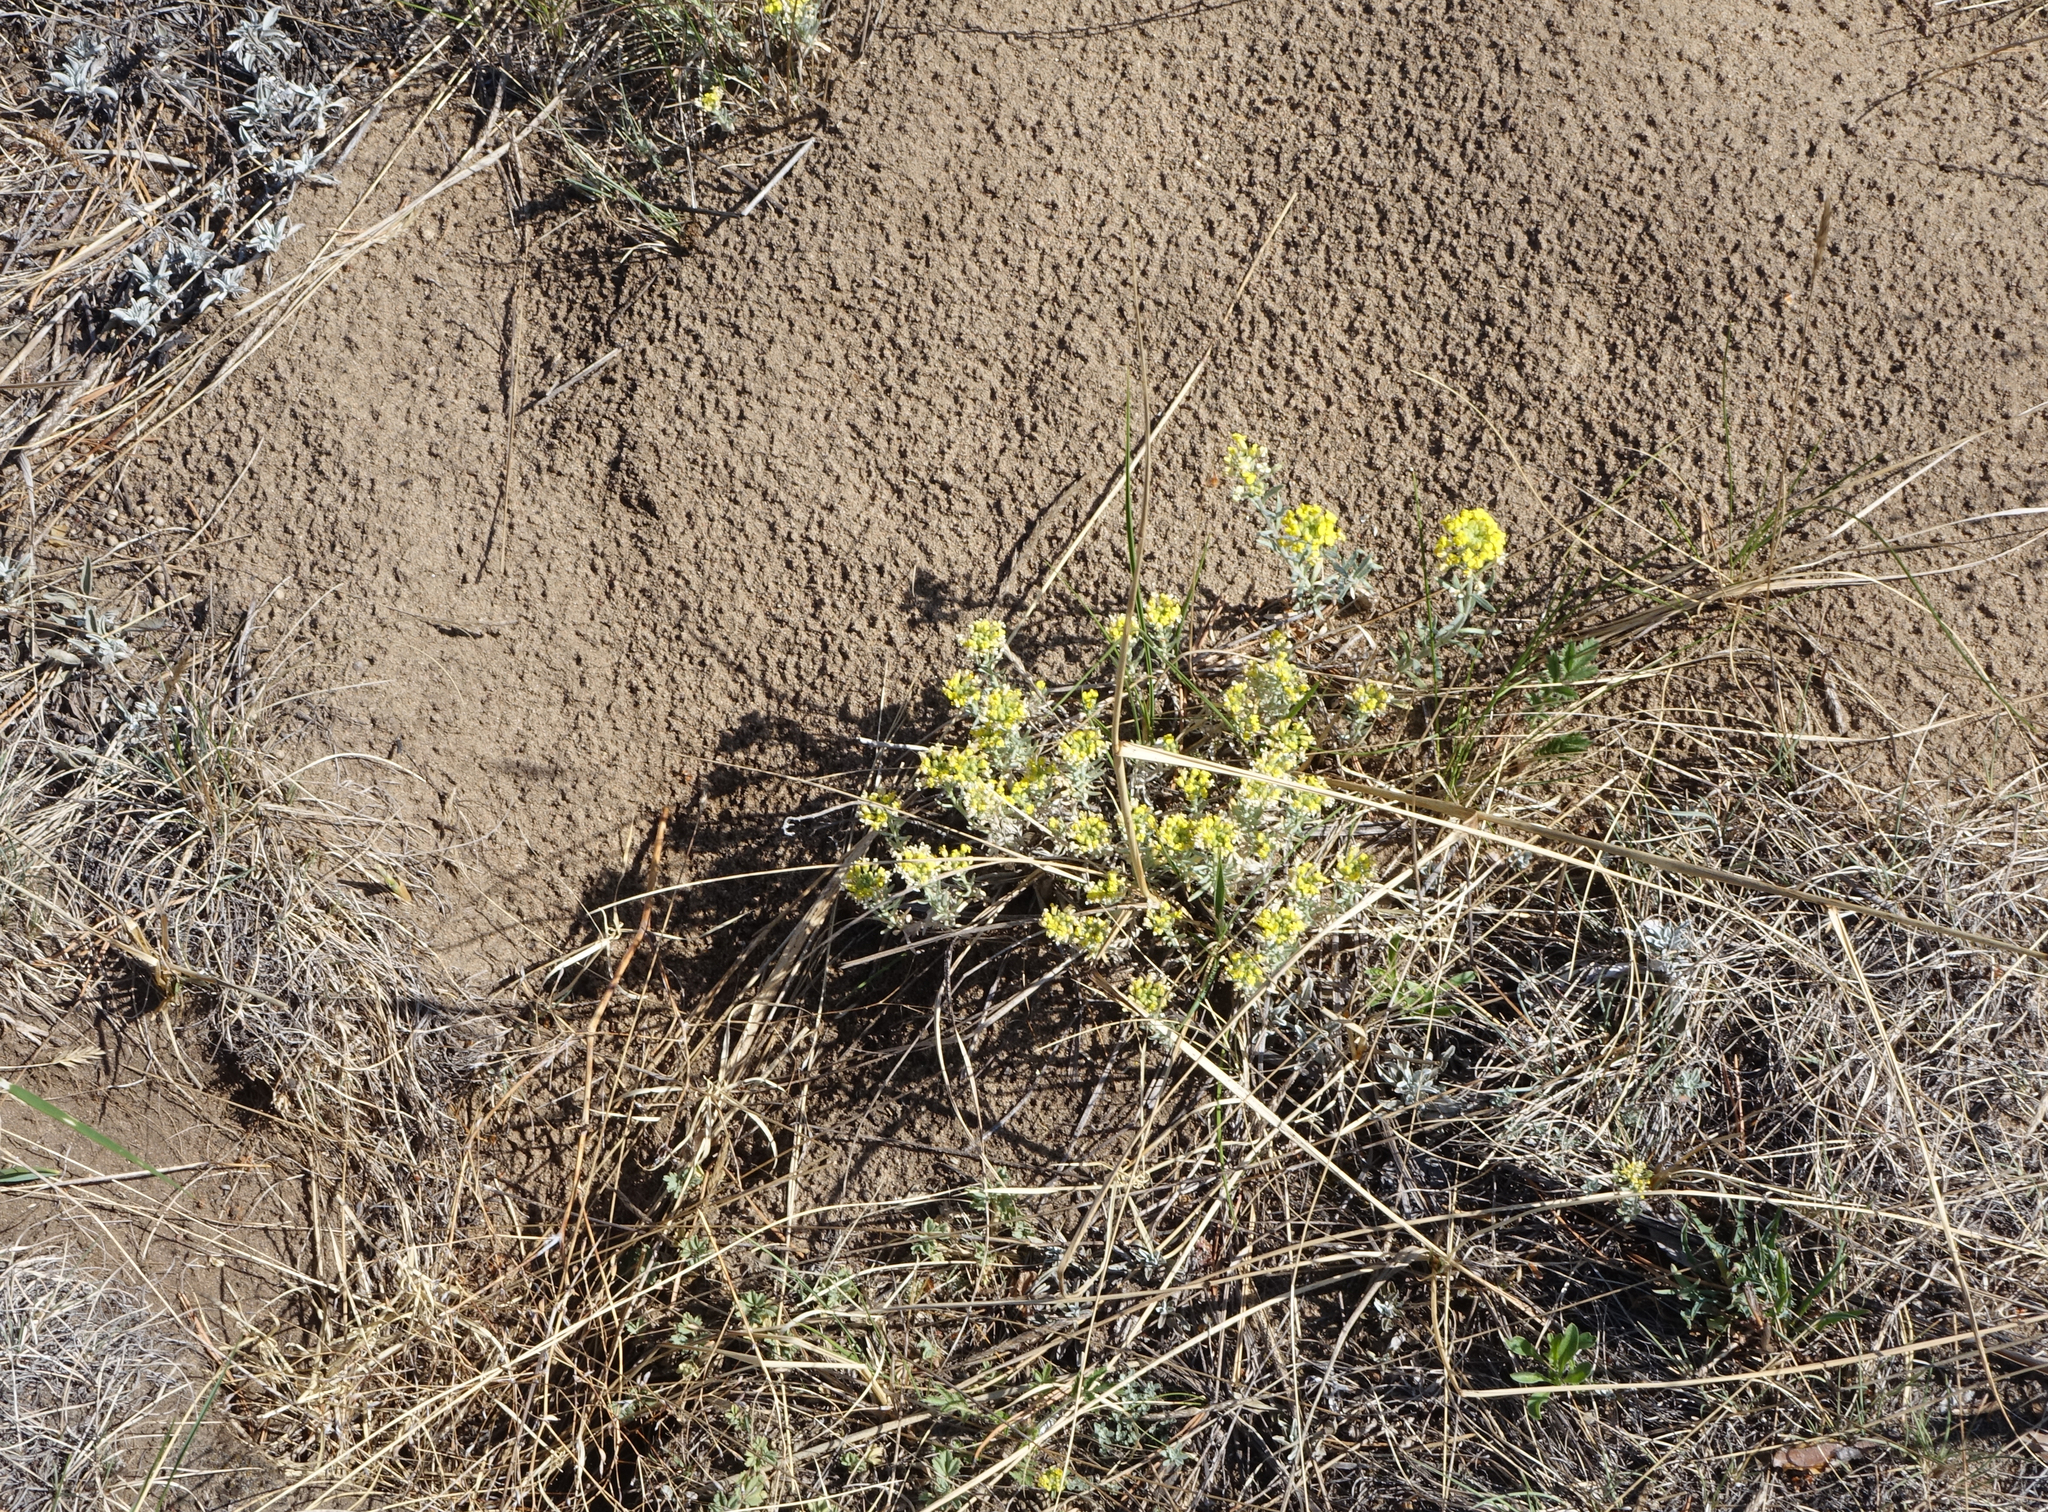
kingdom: Plantae
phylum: Tracheophyta
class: Magnoliopsida
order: Brassicales
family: Brassicaceae
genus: Odontarrhena
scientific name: Odontarrhena obovata
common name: American alyssum
